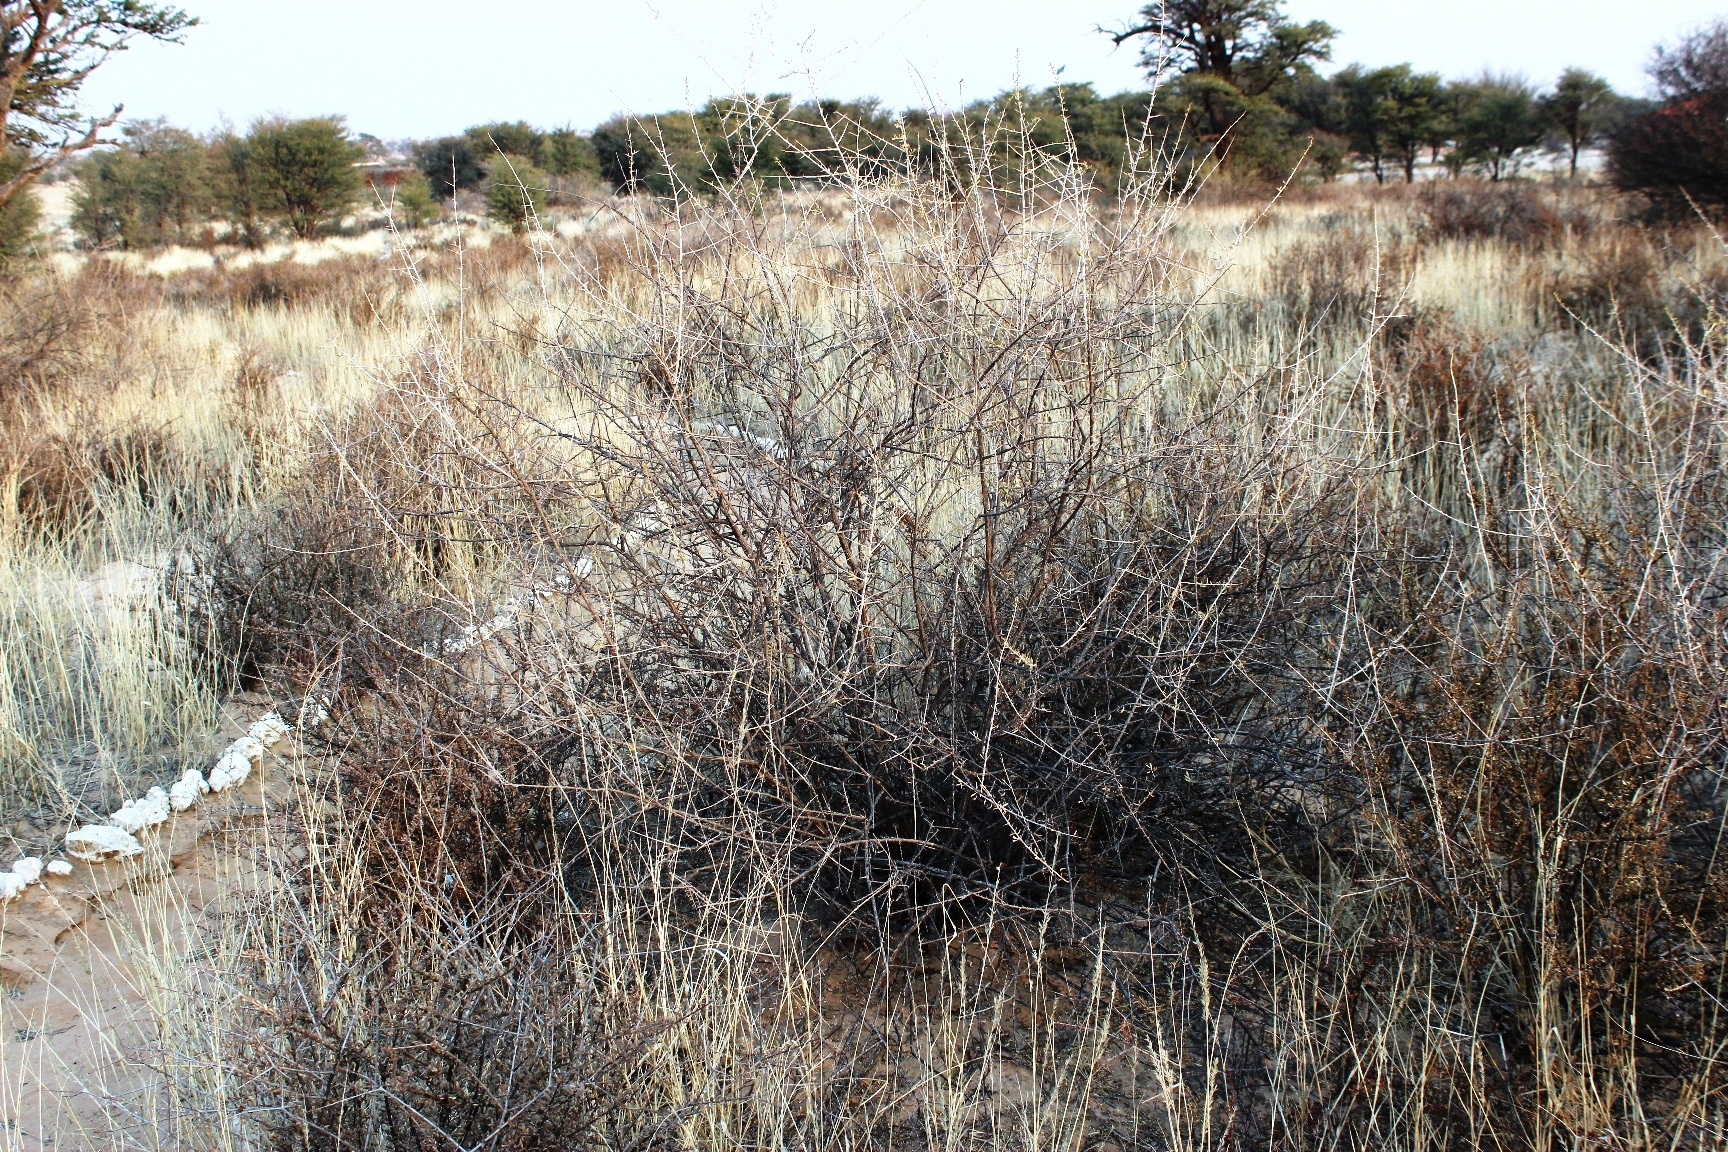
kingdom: Plantae
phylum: Tracheophyta
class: Magnoliopsida
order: Solanales
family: Solanaceae
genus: Lycium
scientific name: Lycium bosciifolium
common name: Limpopo honey-thorn
